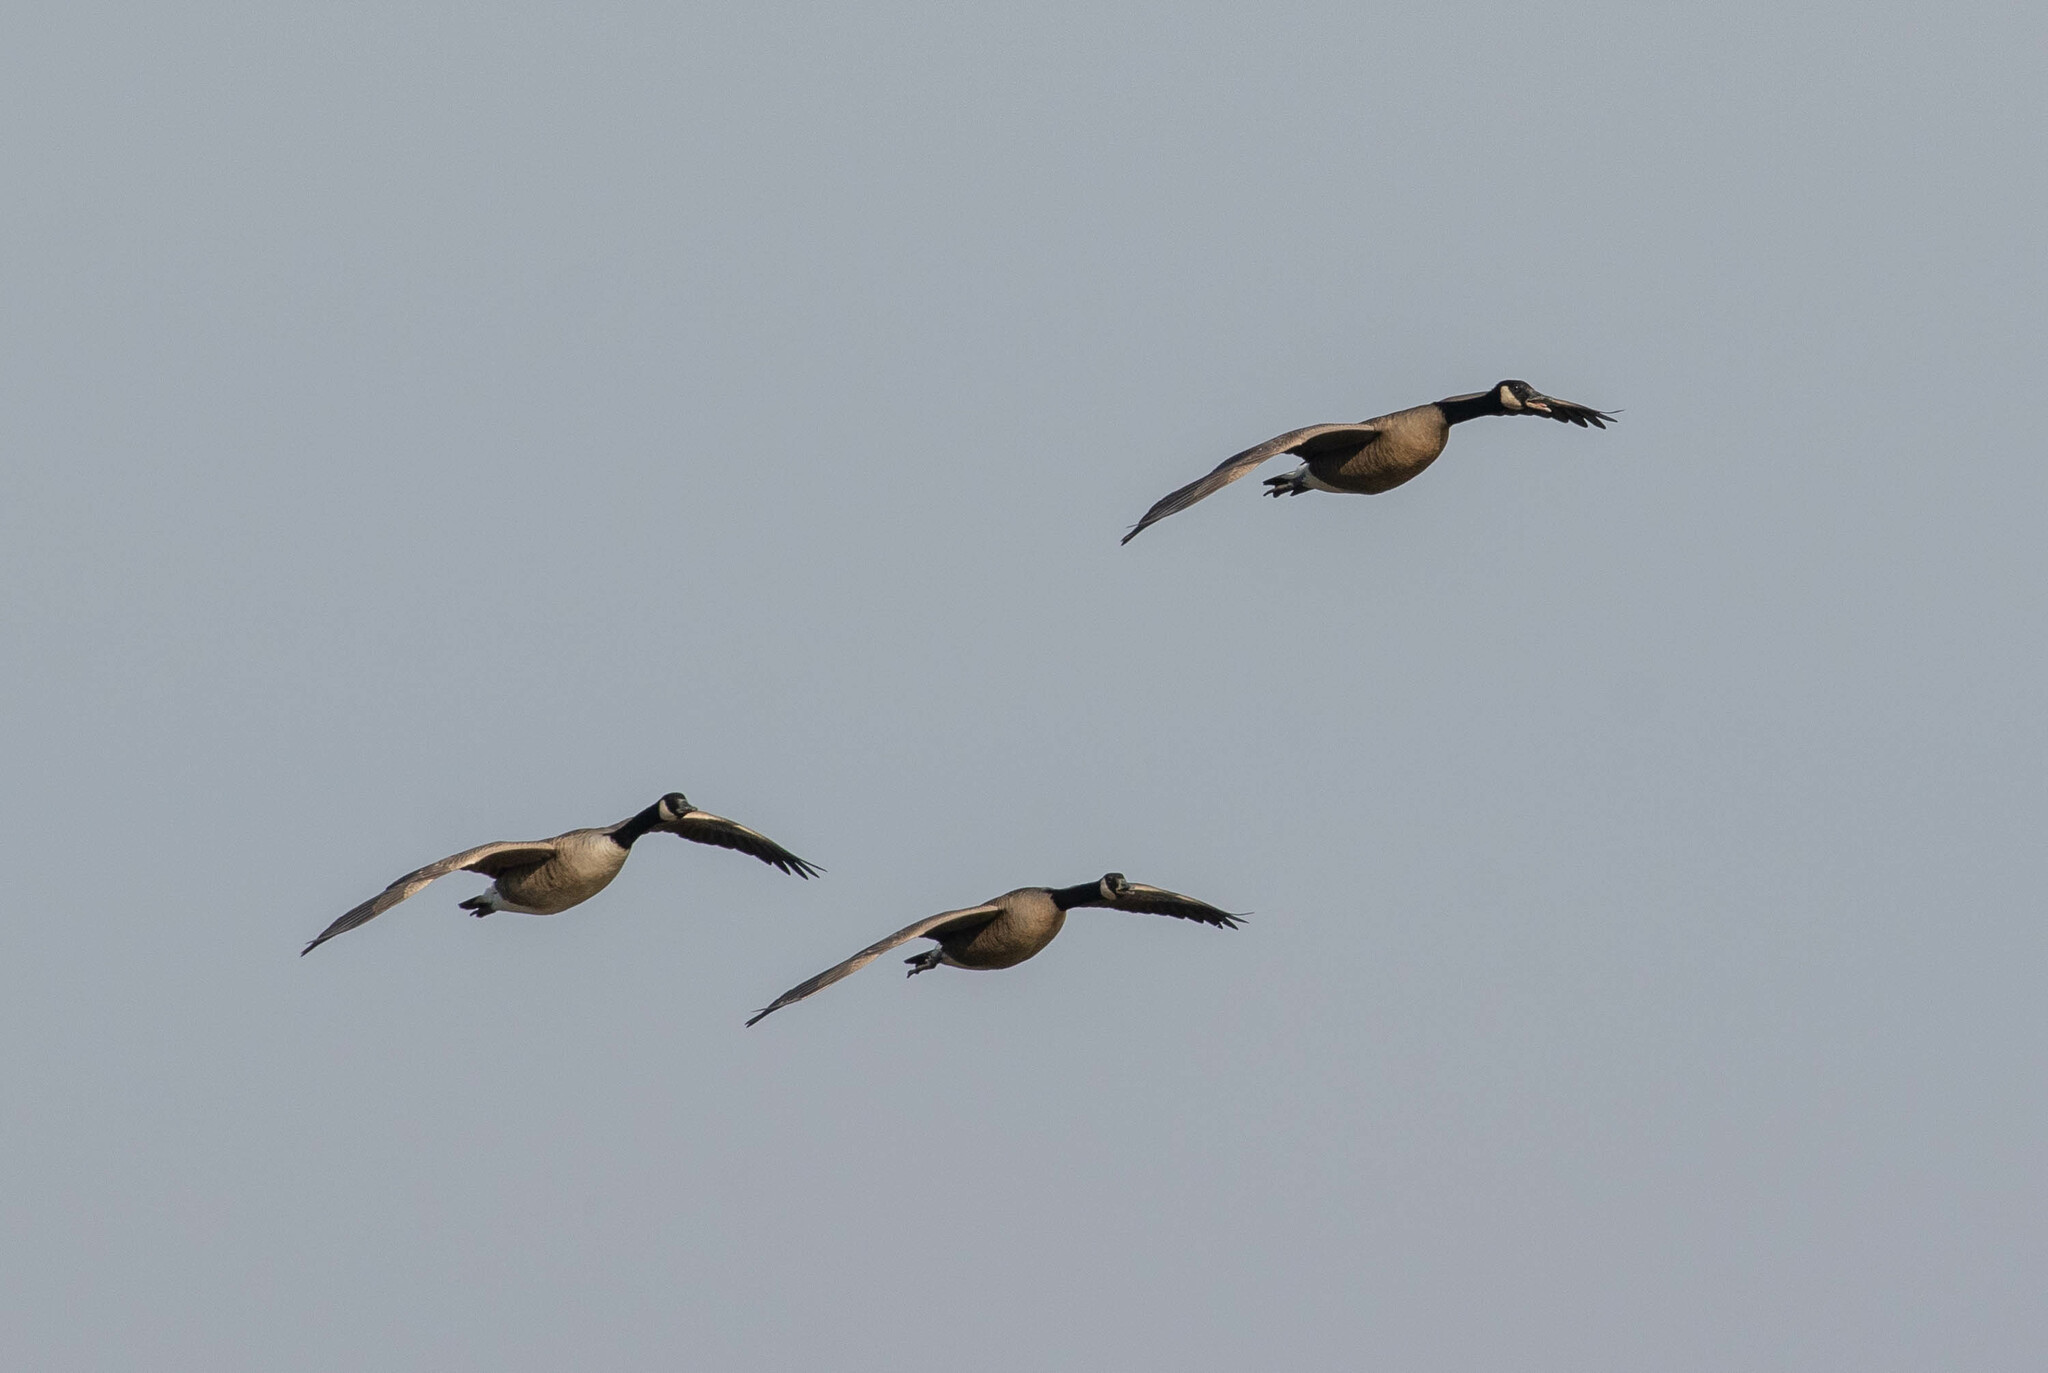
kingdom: Animalia
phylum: Chordata
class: Aves
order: Anseriformes
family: Anatidae
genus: Branta
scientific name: Branta canadensis
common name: Canada goose
